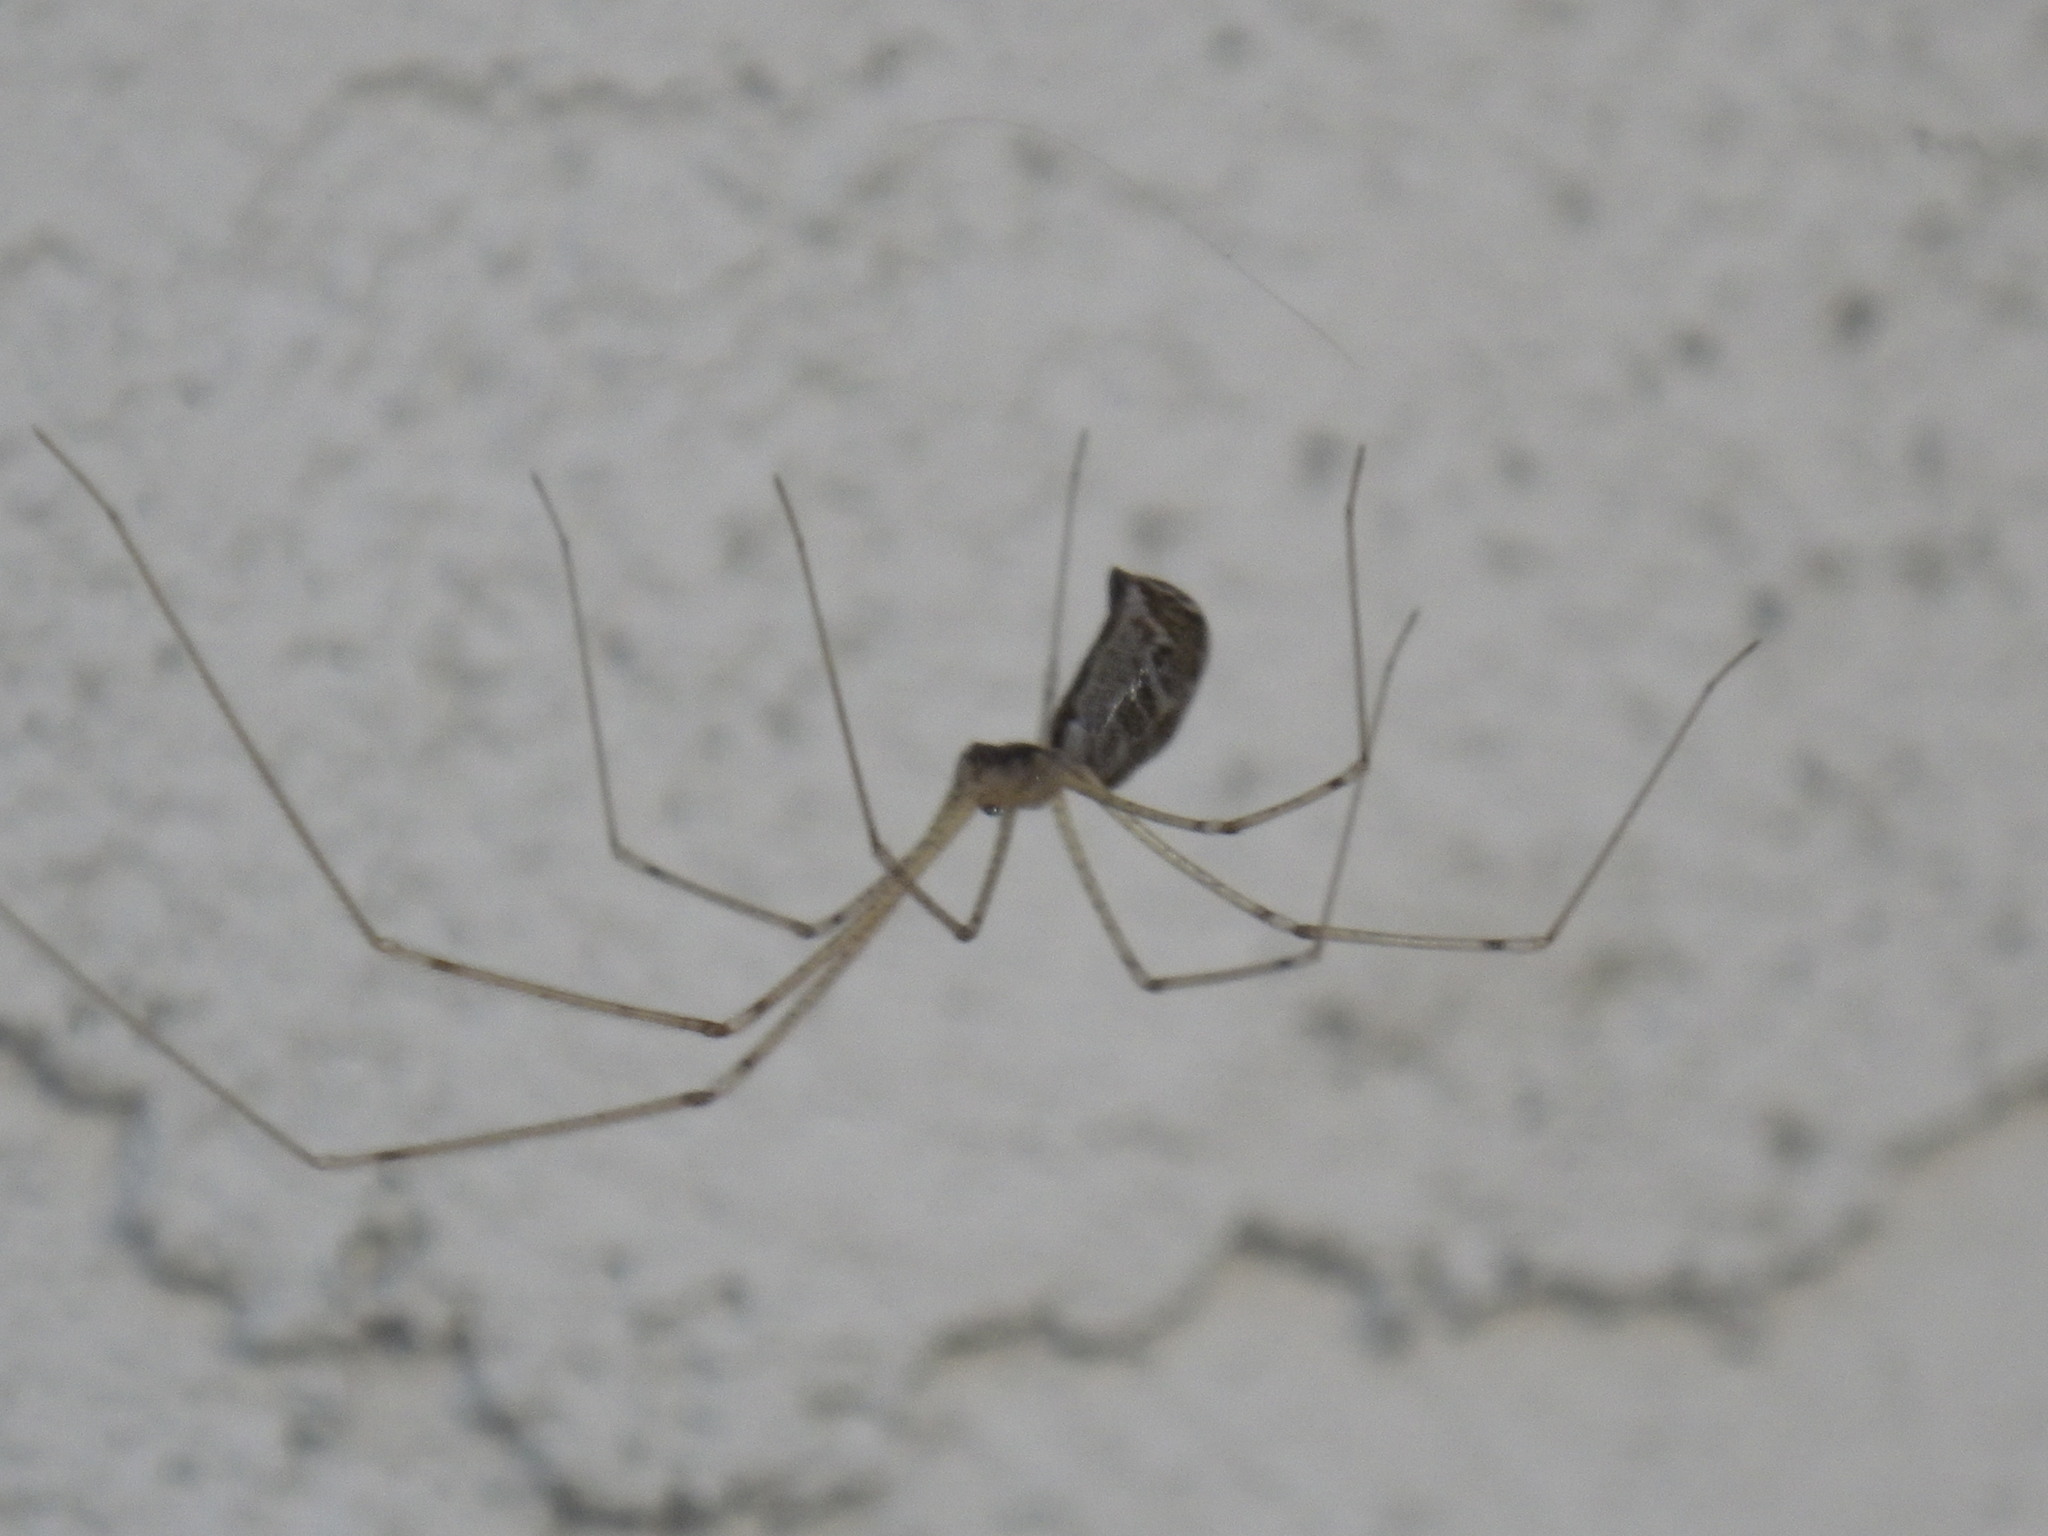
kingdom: Animalia
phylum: Arthropoda
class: Arachnida
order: Araneae
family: Pholcidae
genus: Holocnemus
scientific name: Holocnemus pluchei
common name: Marbled cellar spider
